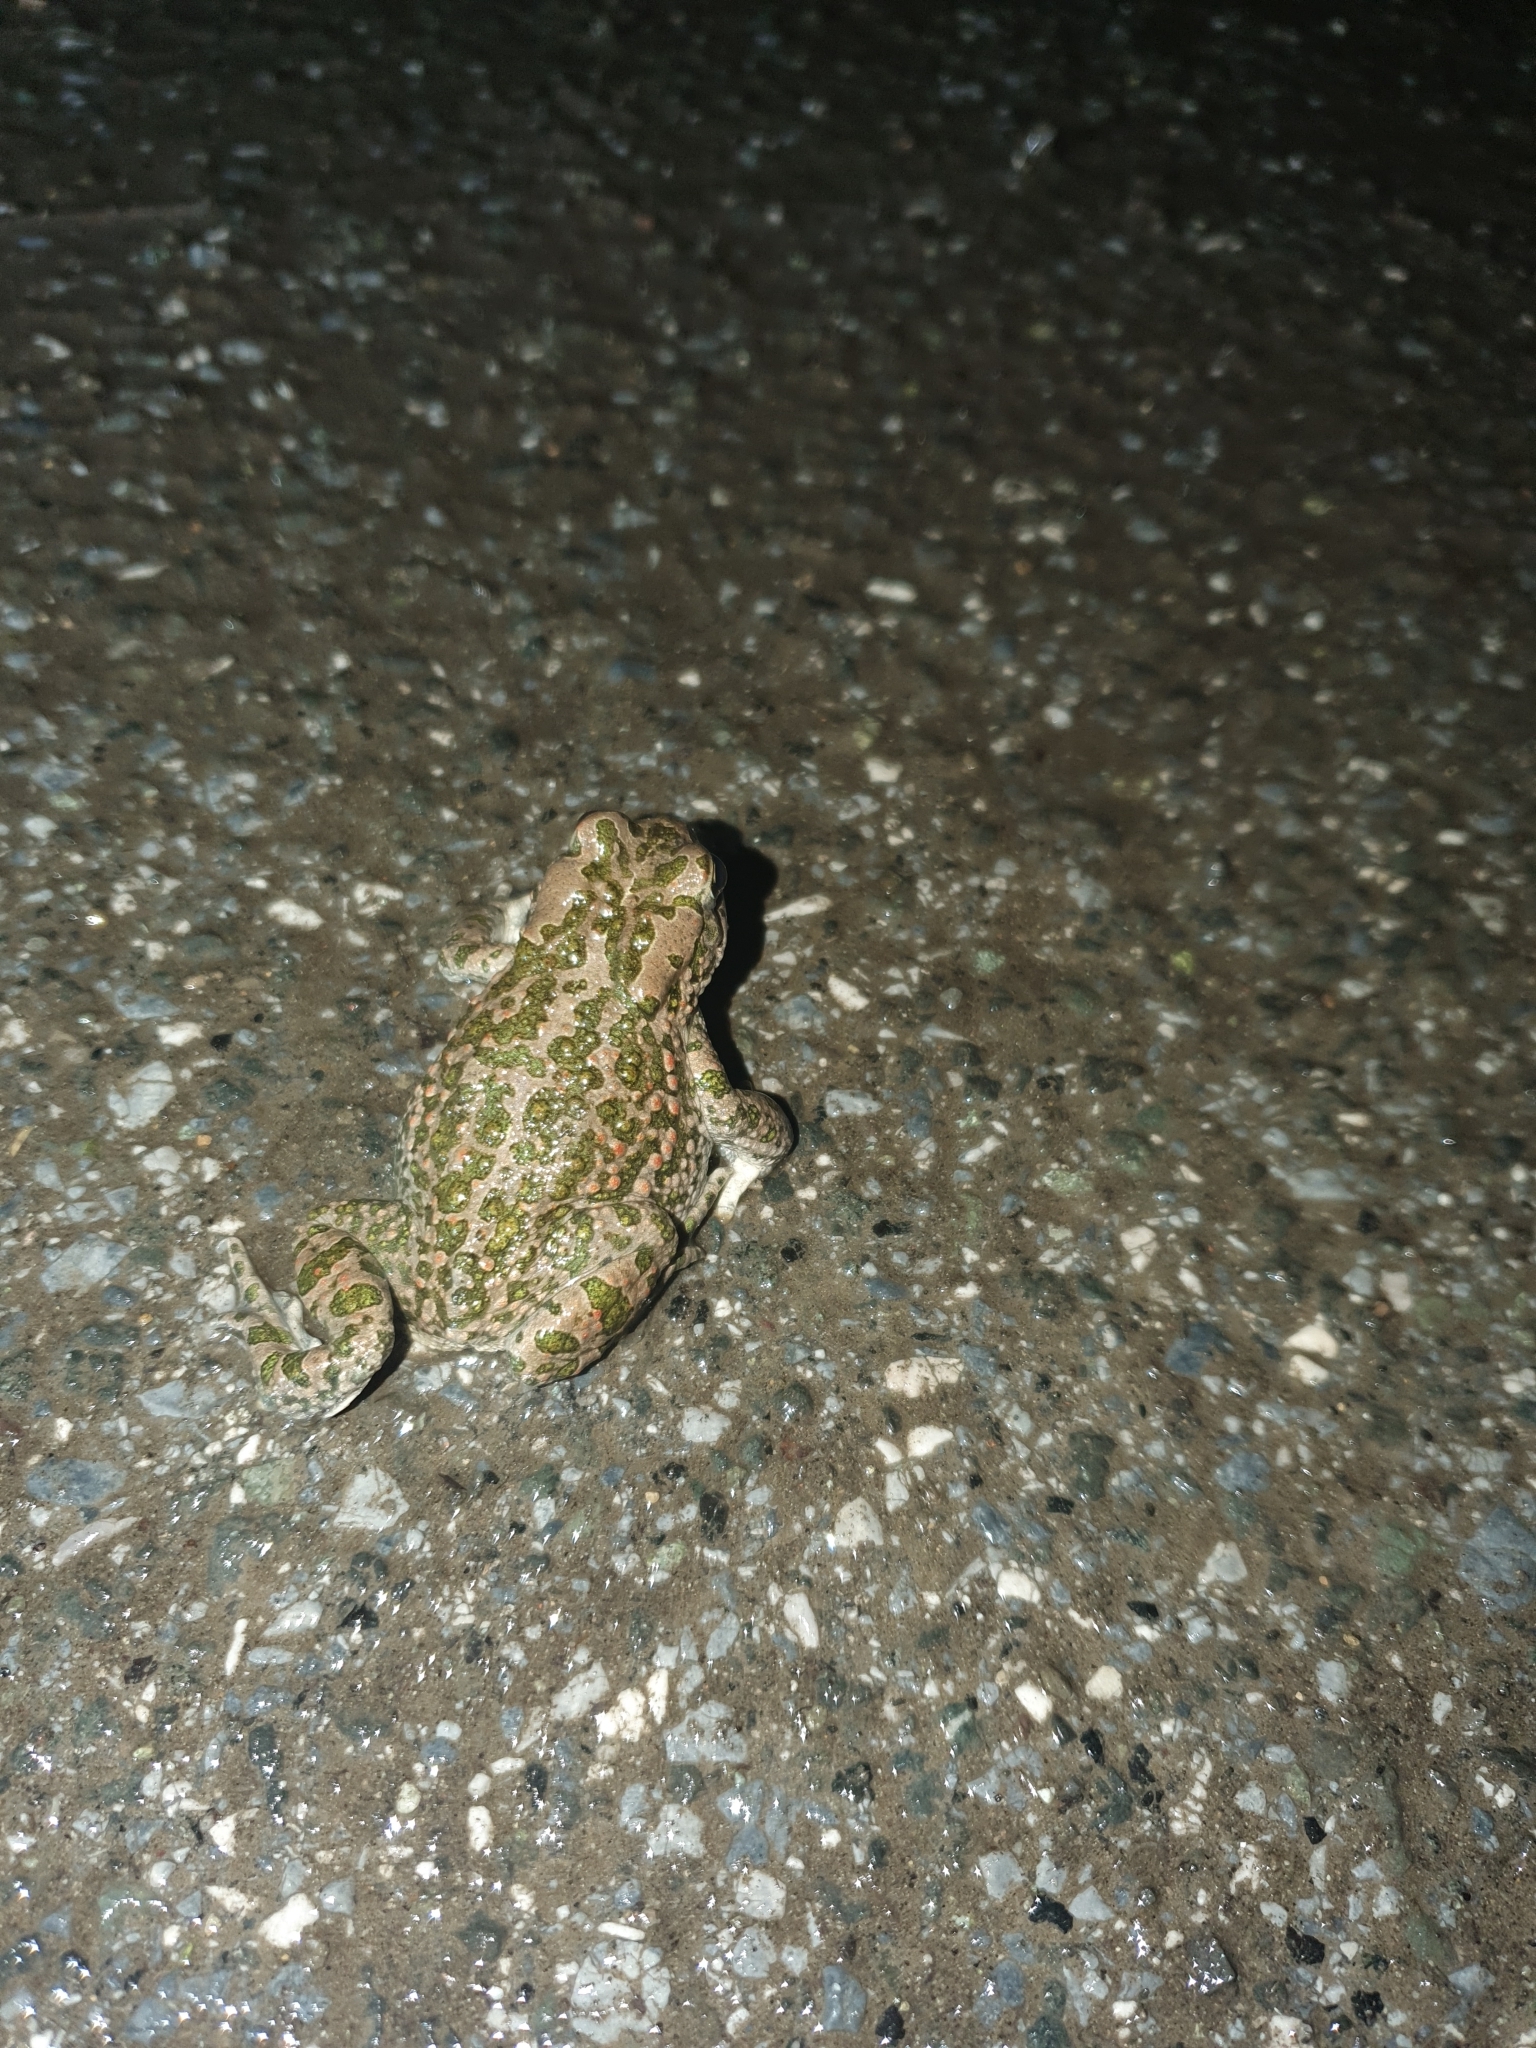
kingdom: Animalia
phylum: Chordata
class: Amphibia
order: Anura
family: Bufonidae
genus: Bufotes
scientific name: Bufotes viridis
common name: European green toad
